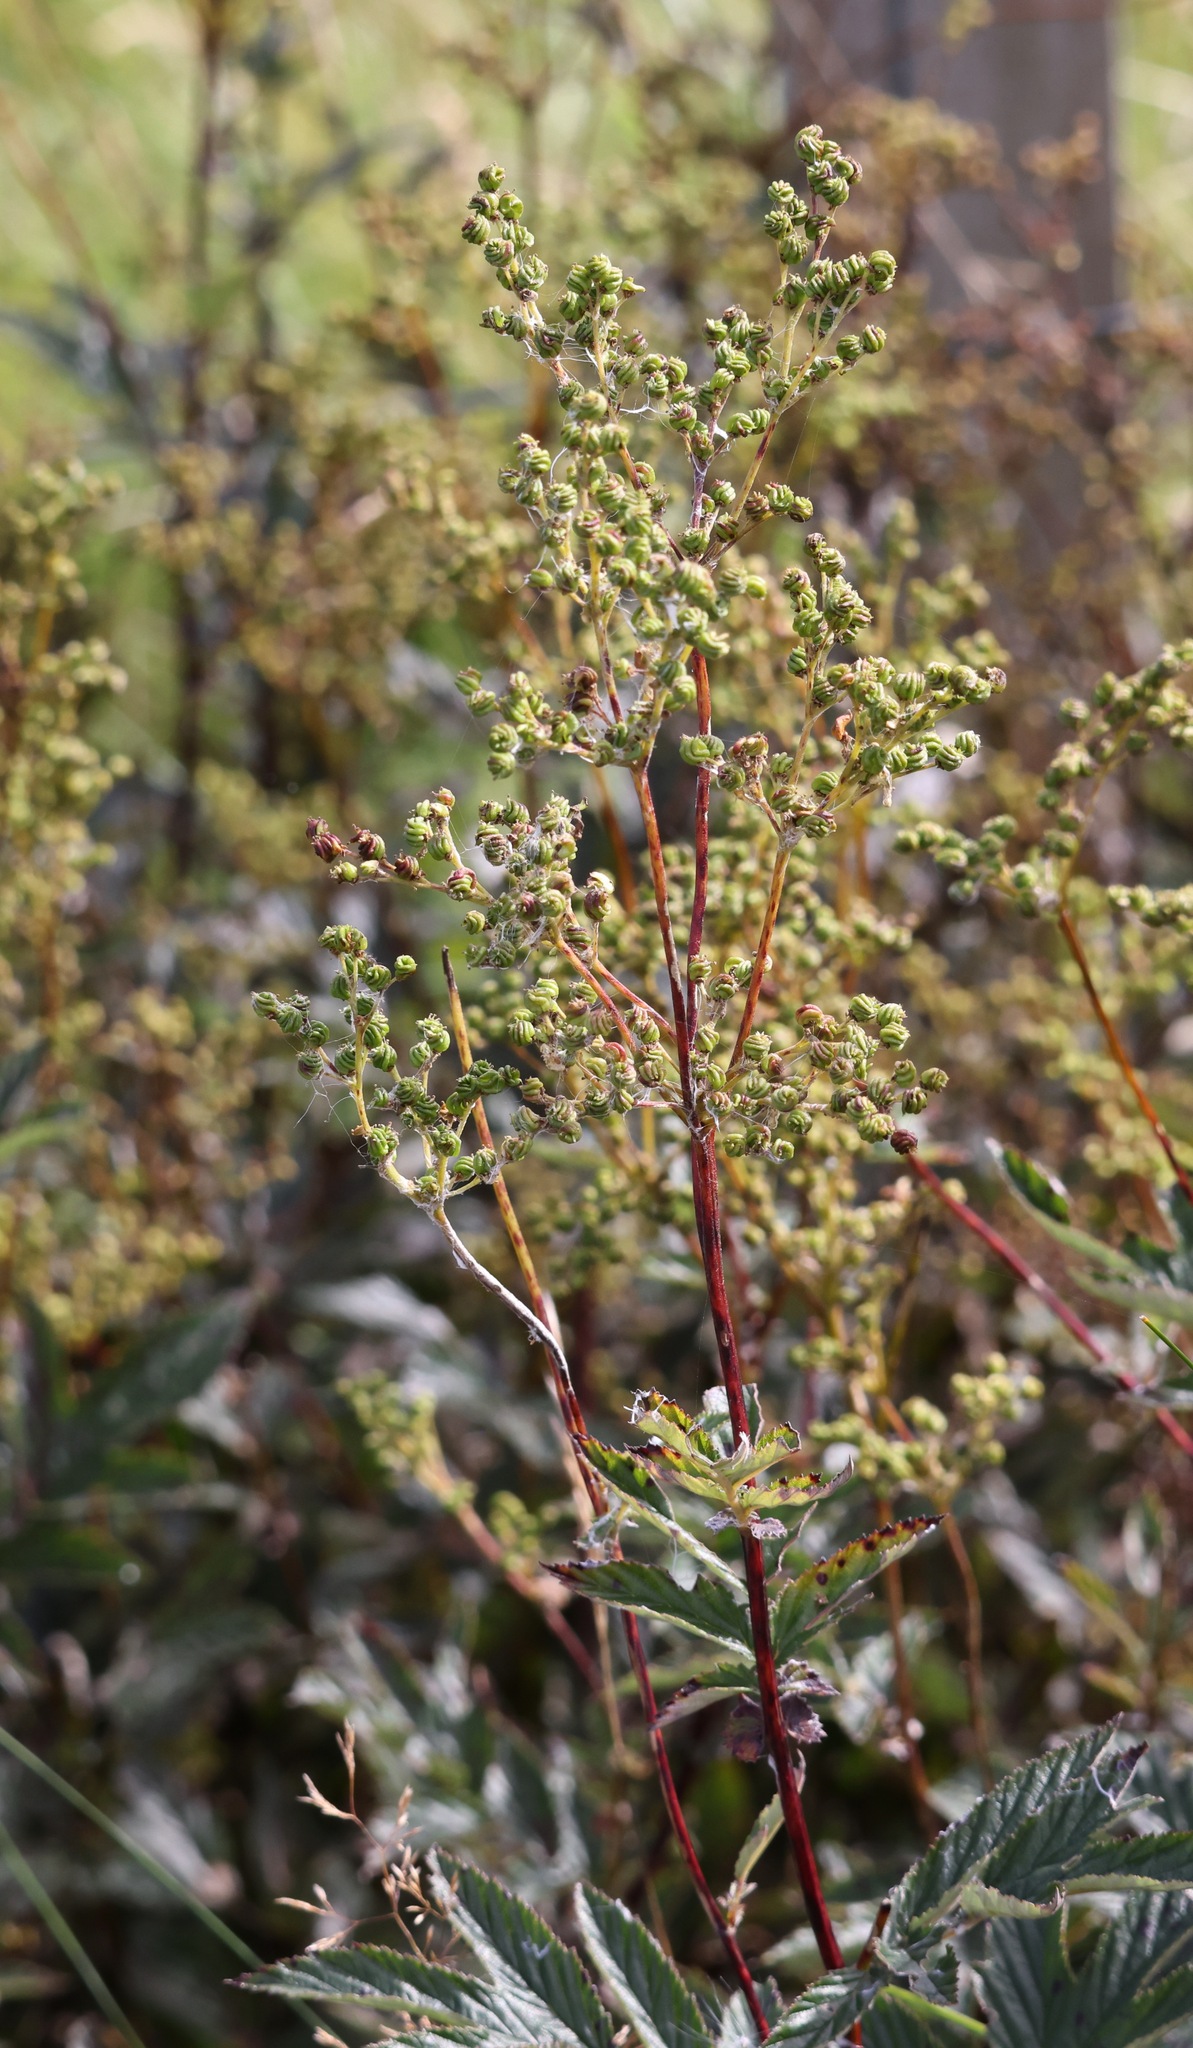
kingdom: Plantae
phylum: Tracheophyta
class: Magnoliopsida
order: Rosales
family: Rosaceae
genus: Filipendula
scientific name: Filipendula ulmaria
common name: Meadowsweet
